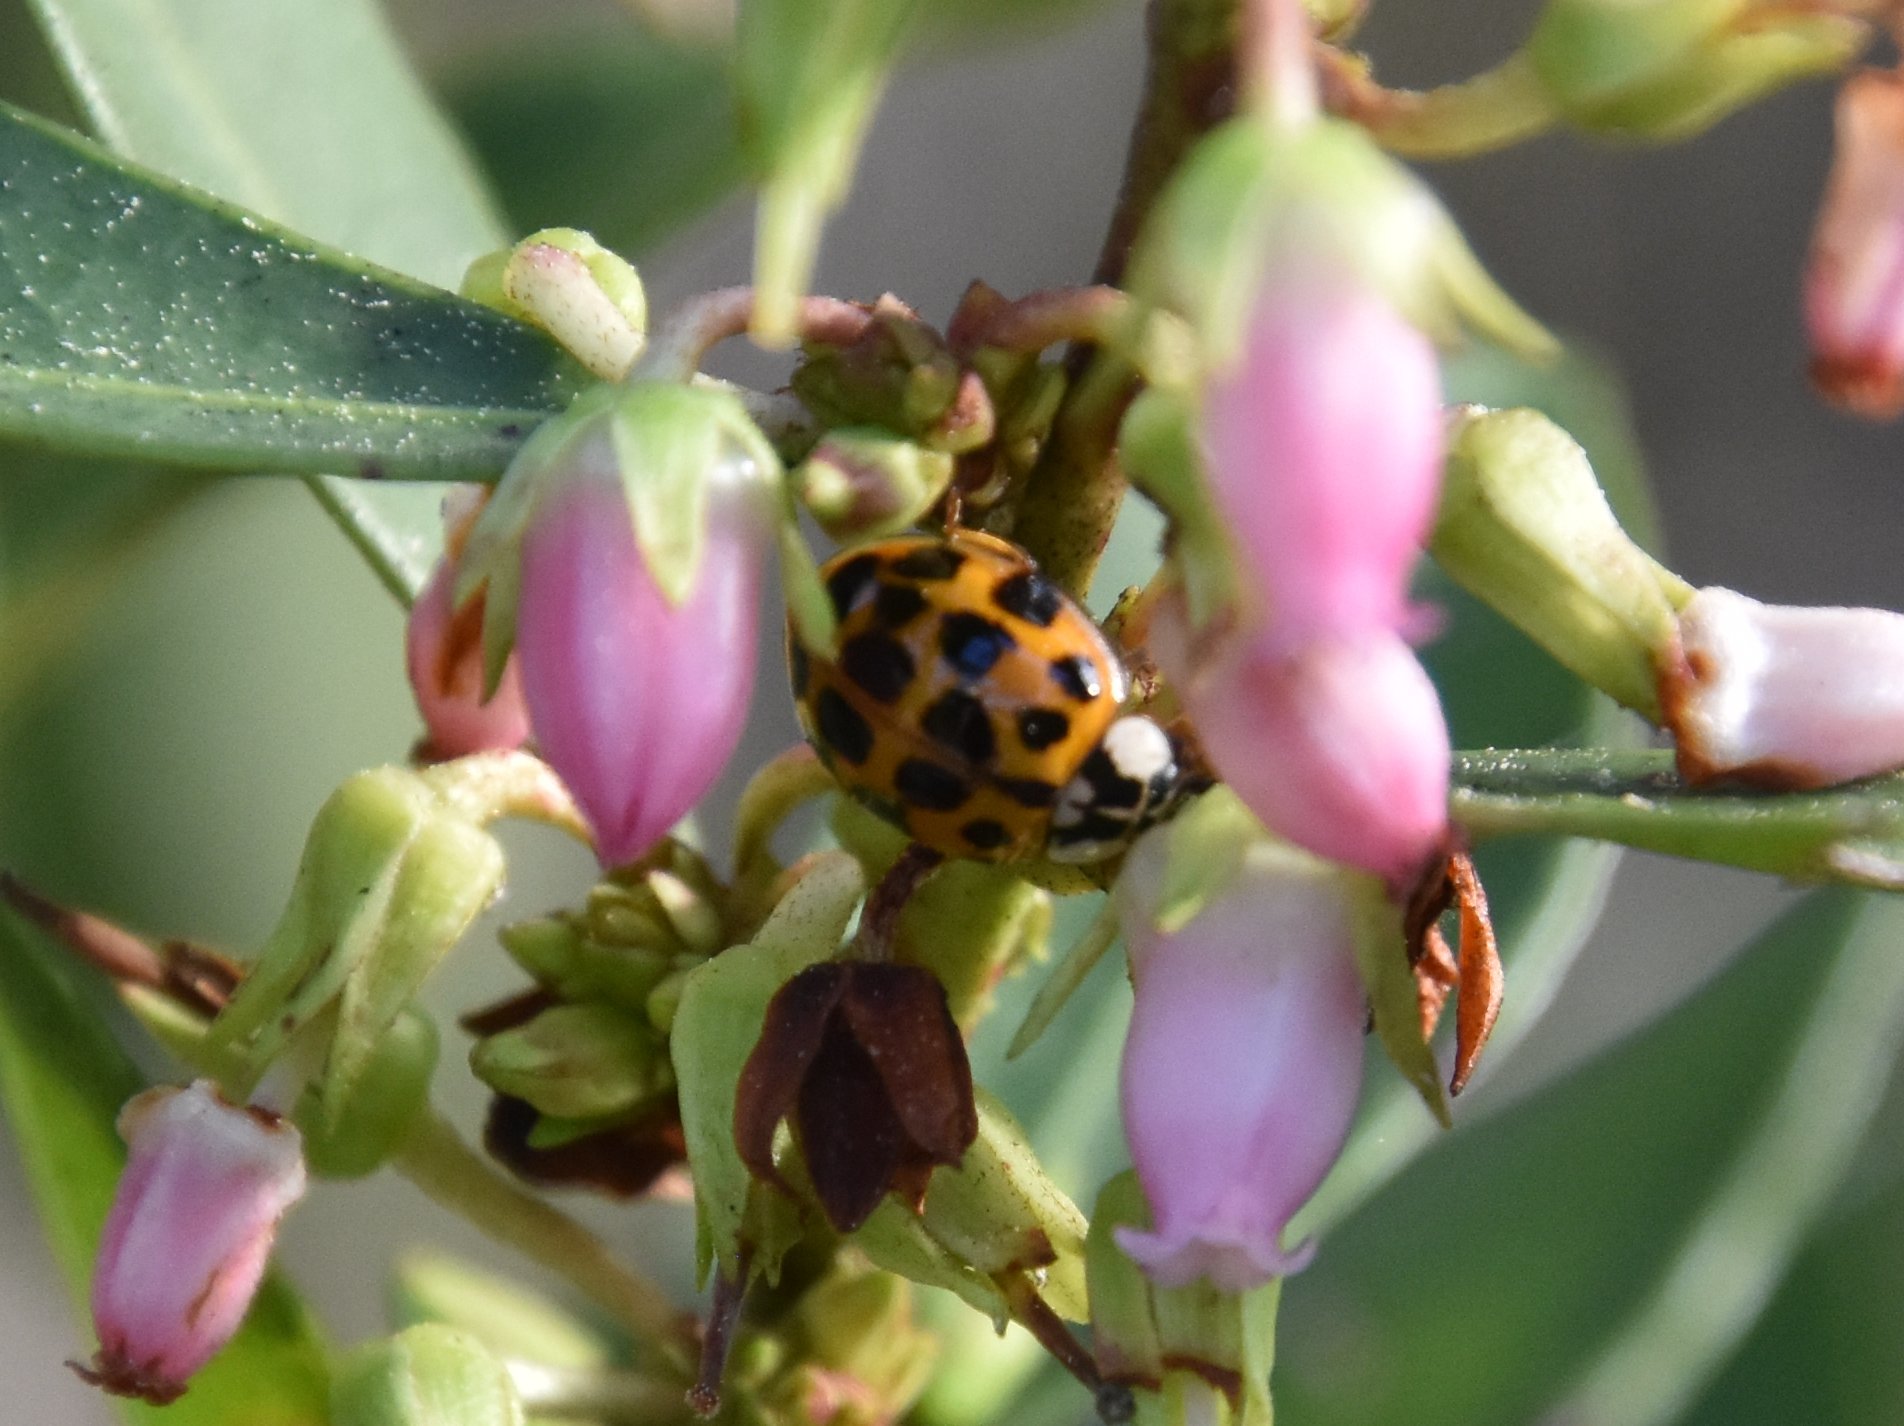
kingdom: Animalia
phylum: Arthropoda
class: Insecta
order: Coleoptera
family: Coccinellidae
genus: Harmonia
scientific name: Harmonia axyridis
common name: Harlequin ladybird
